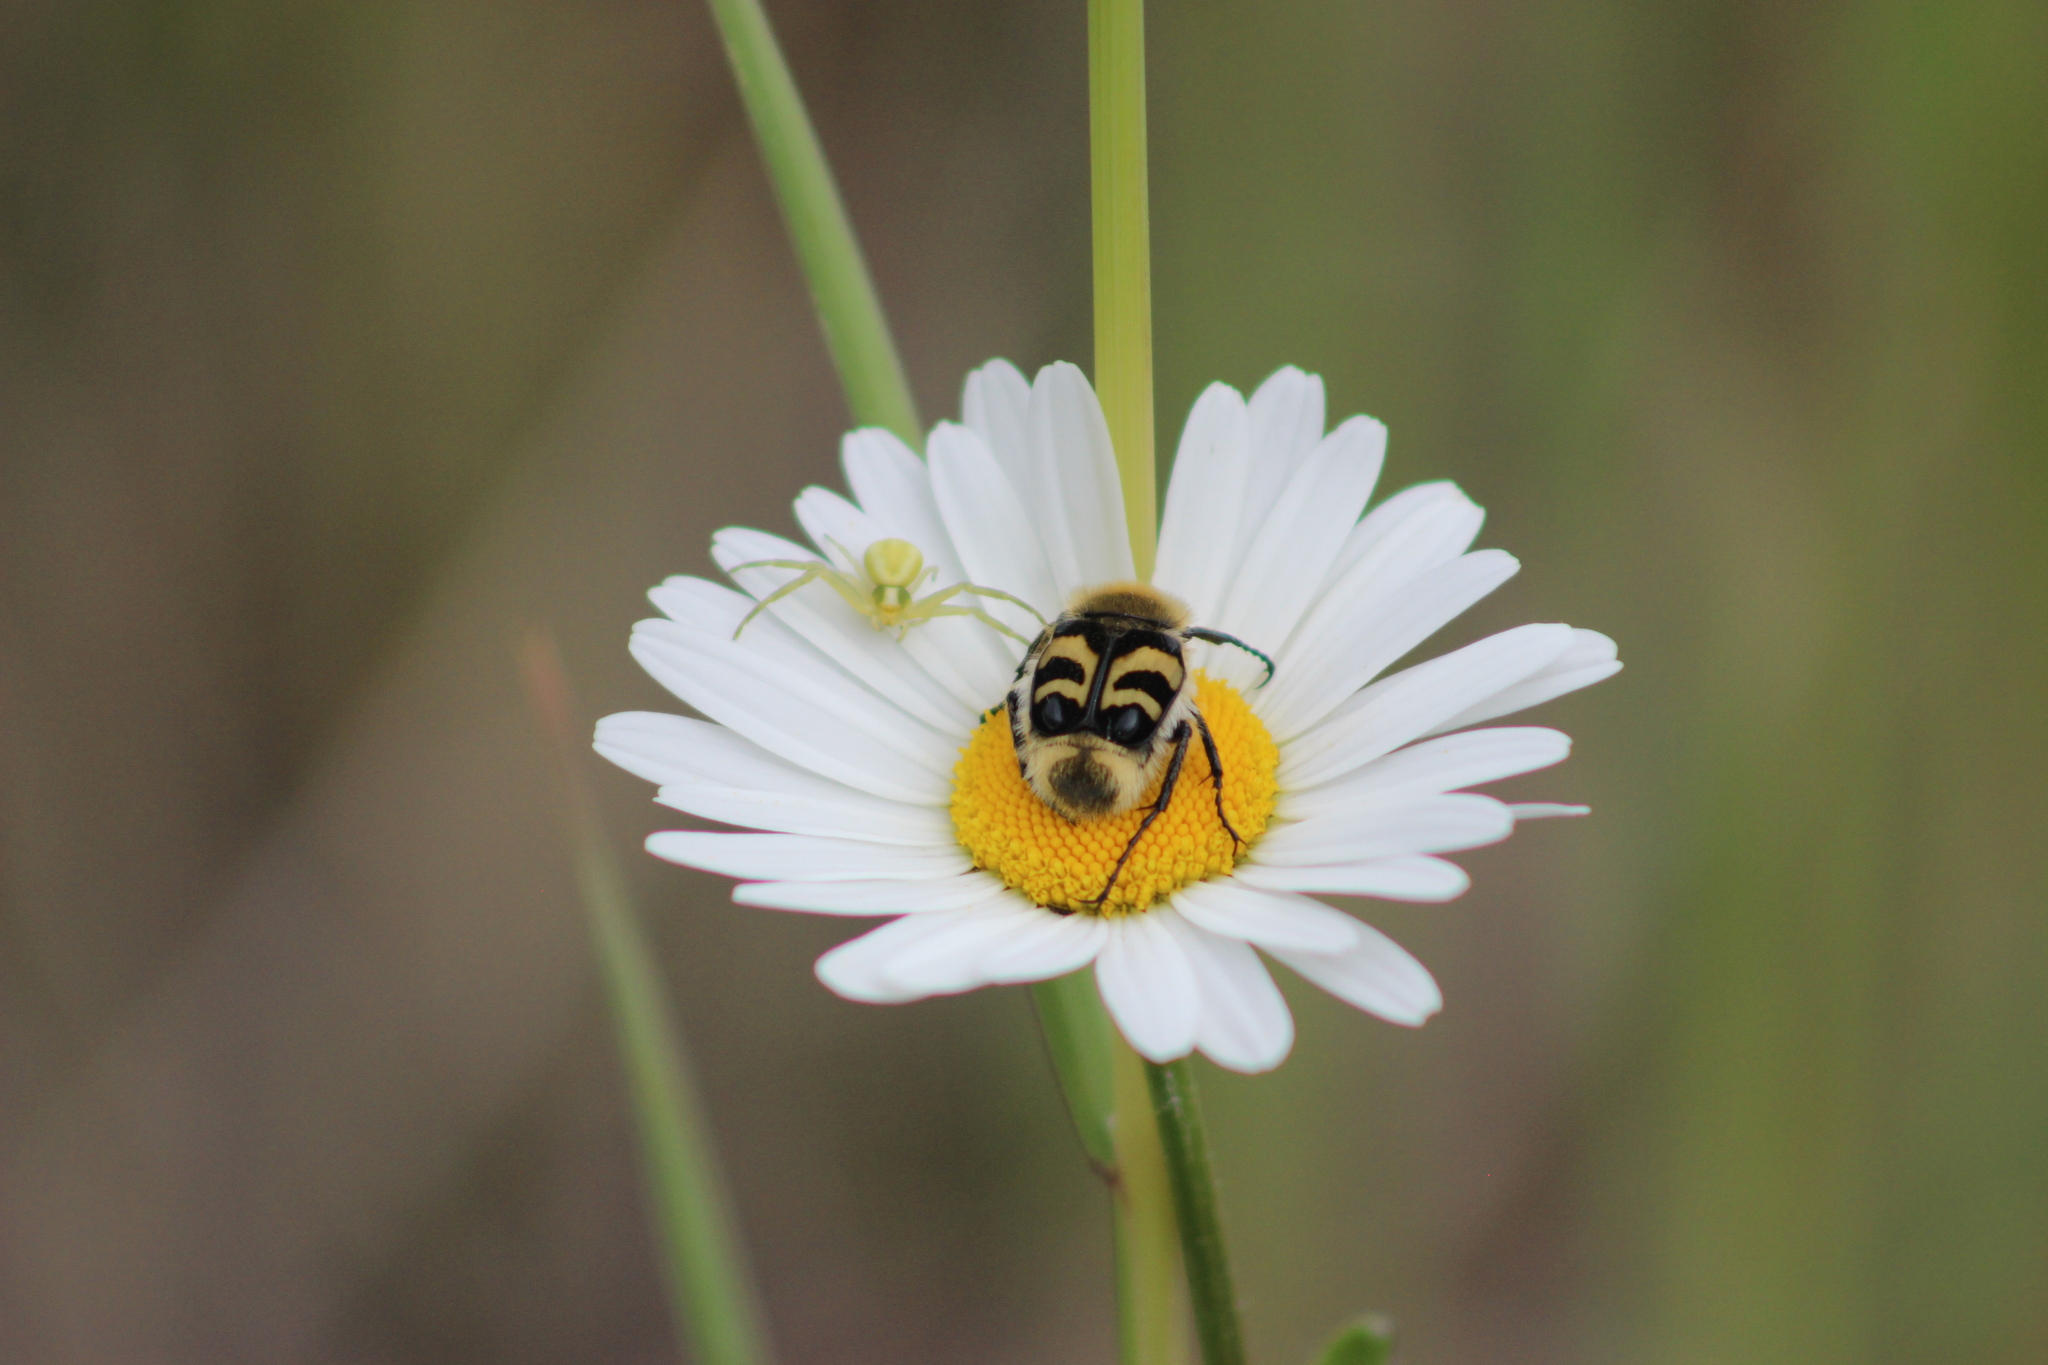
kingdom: Animalia
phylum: Arthropoda
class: Arachnida
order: Araneae
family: Thomisidae
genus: Misumena
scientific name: Misumena vatia
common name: Goldenrod crab spider
